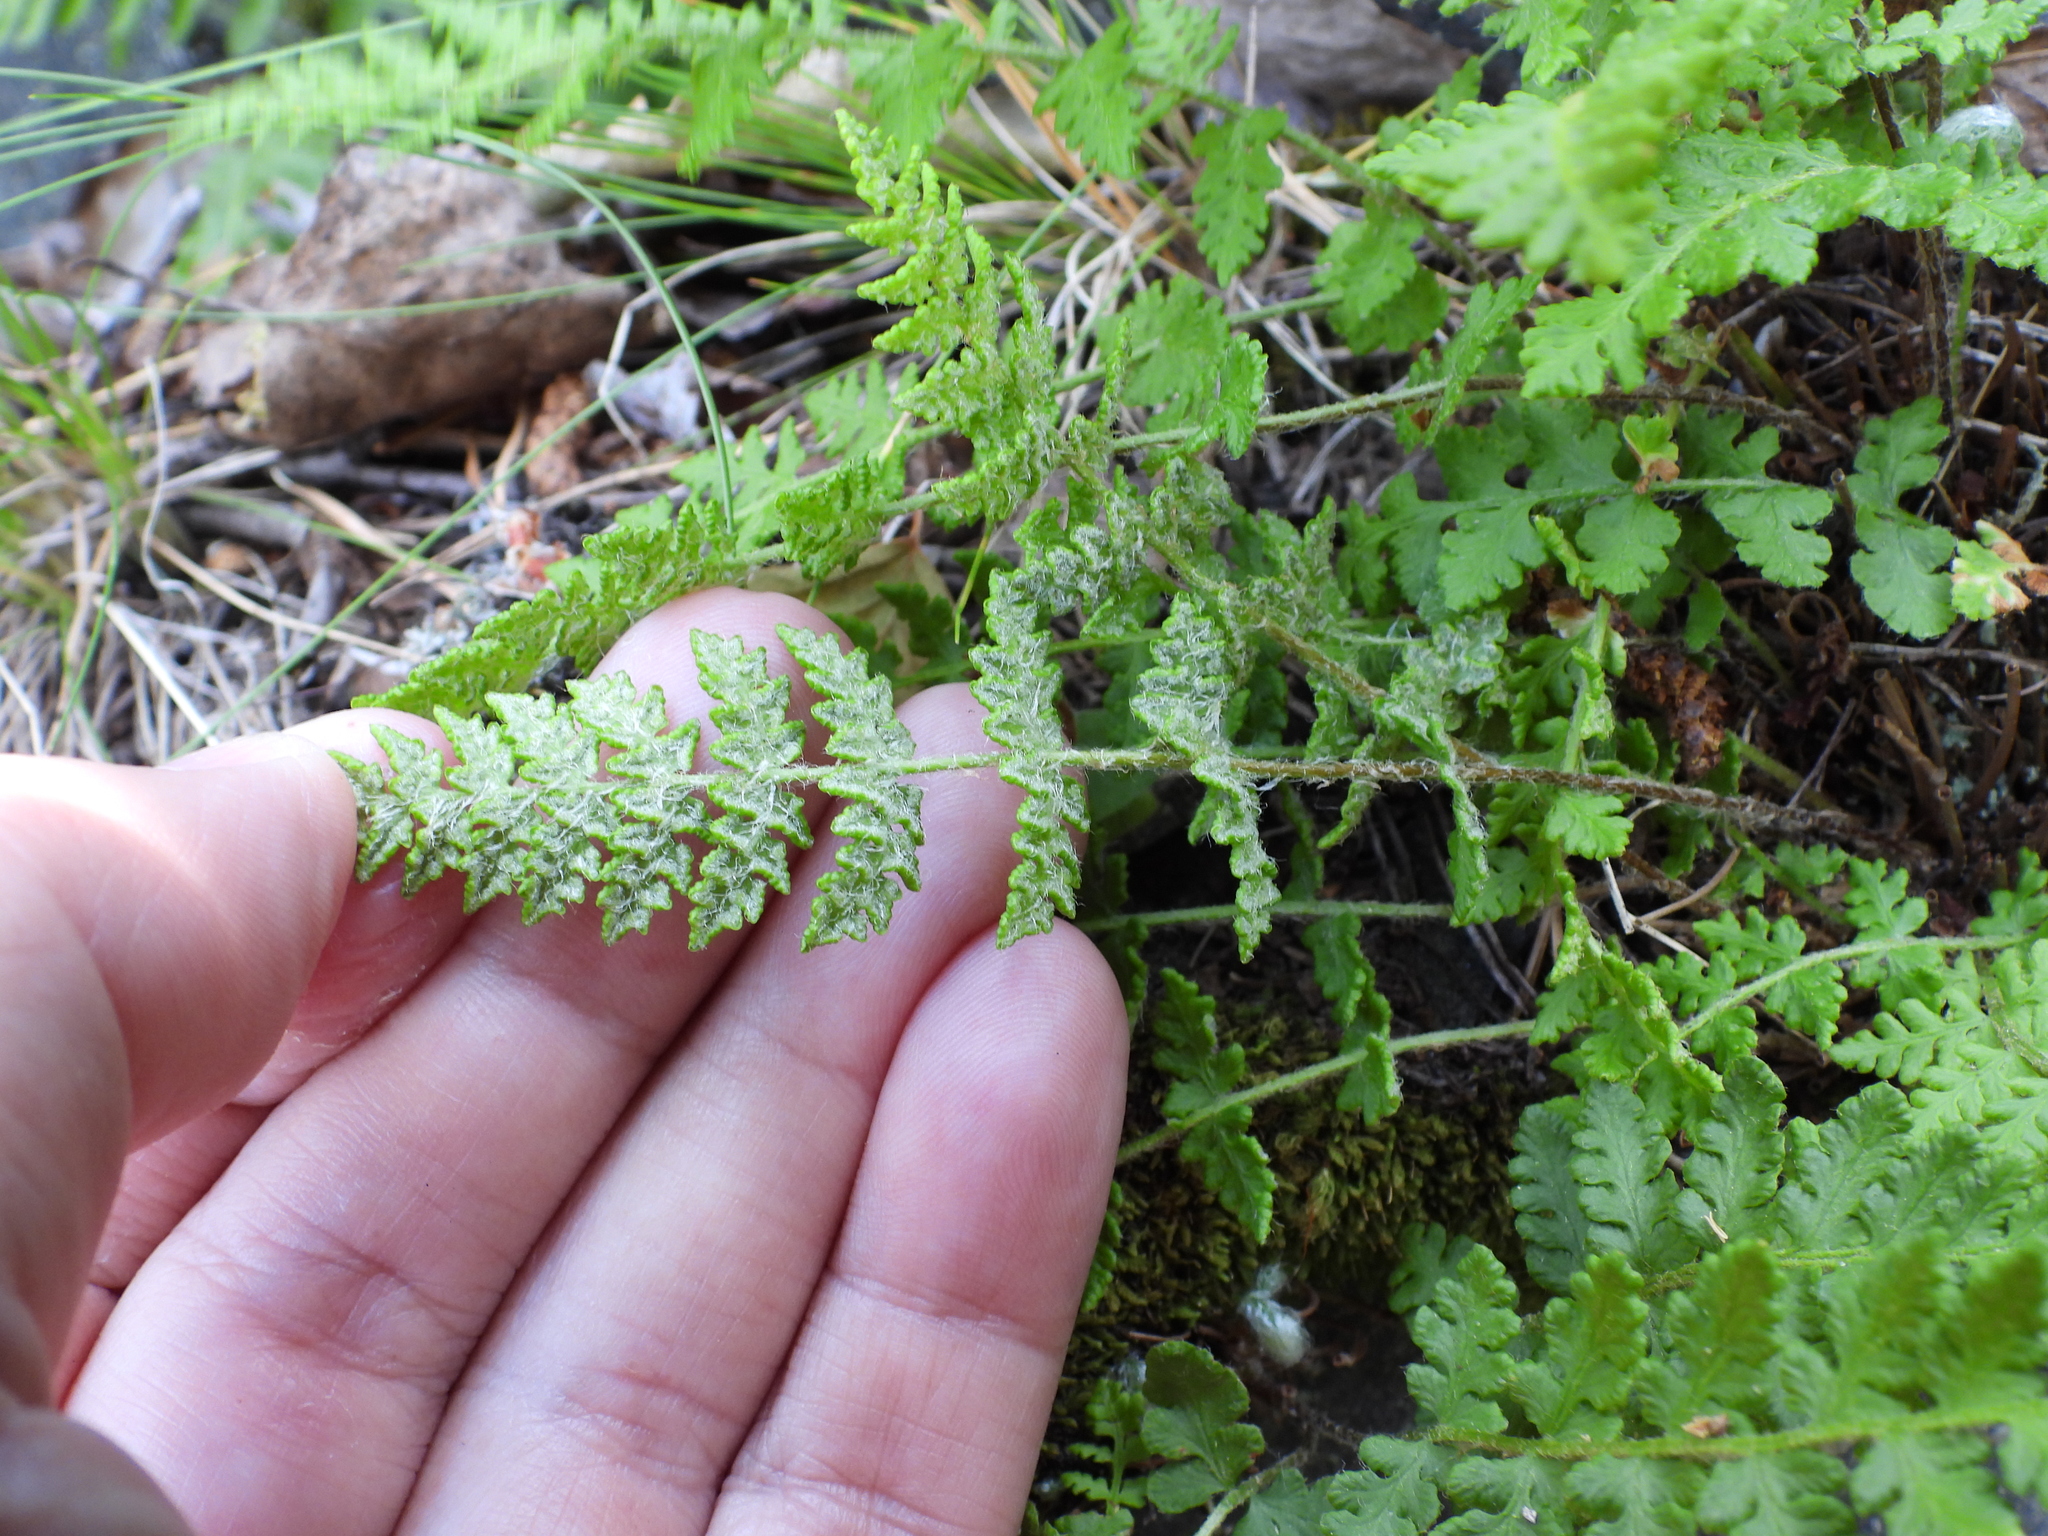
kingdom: Plantae
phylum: Tracheophyta
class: Polypodiopsida
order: Polypodiales
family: Woodsiaceae
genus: Woodsia
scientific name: Woodsia ilvensis
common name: Fragrant woodsia
